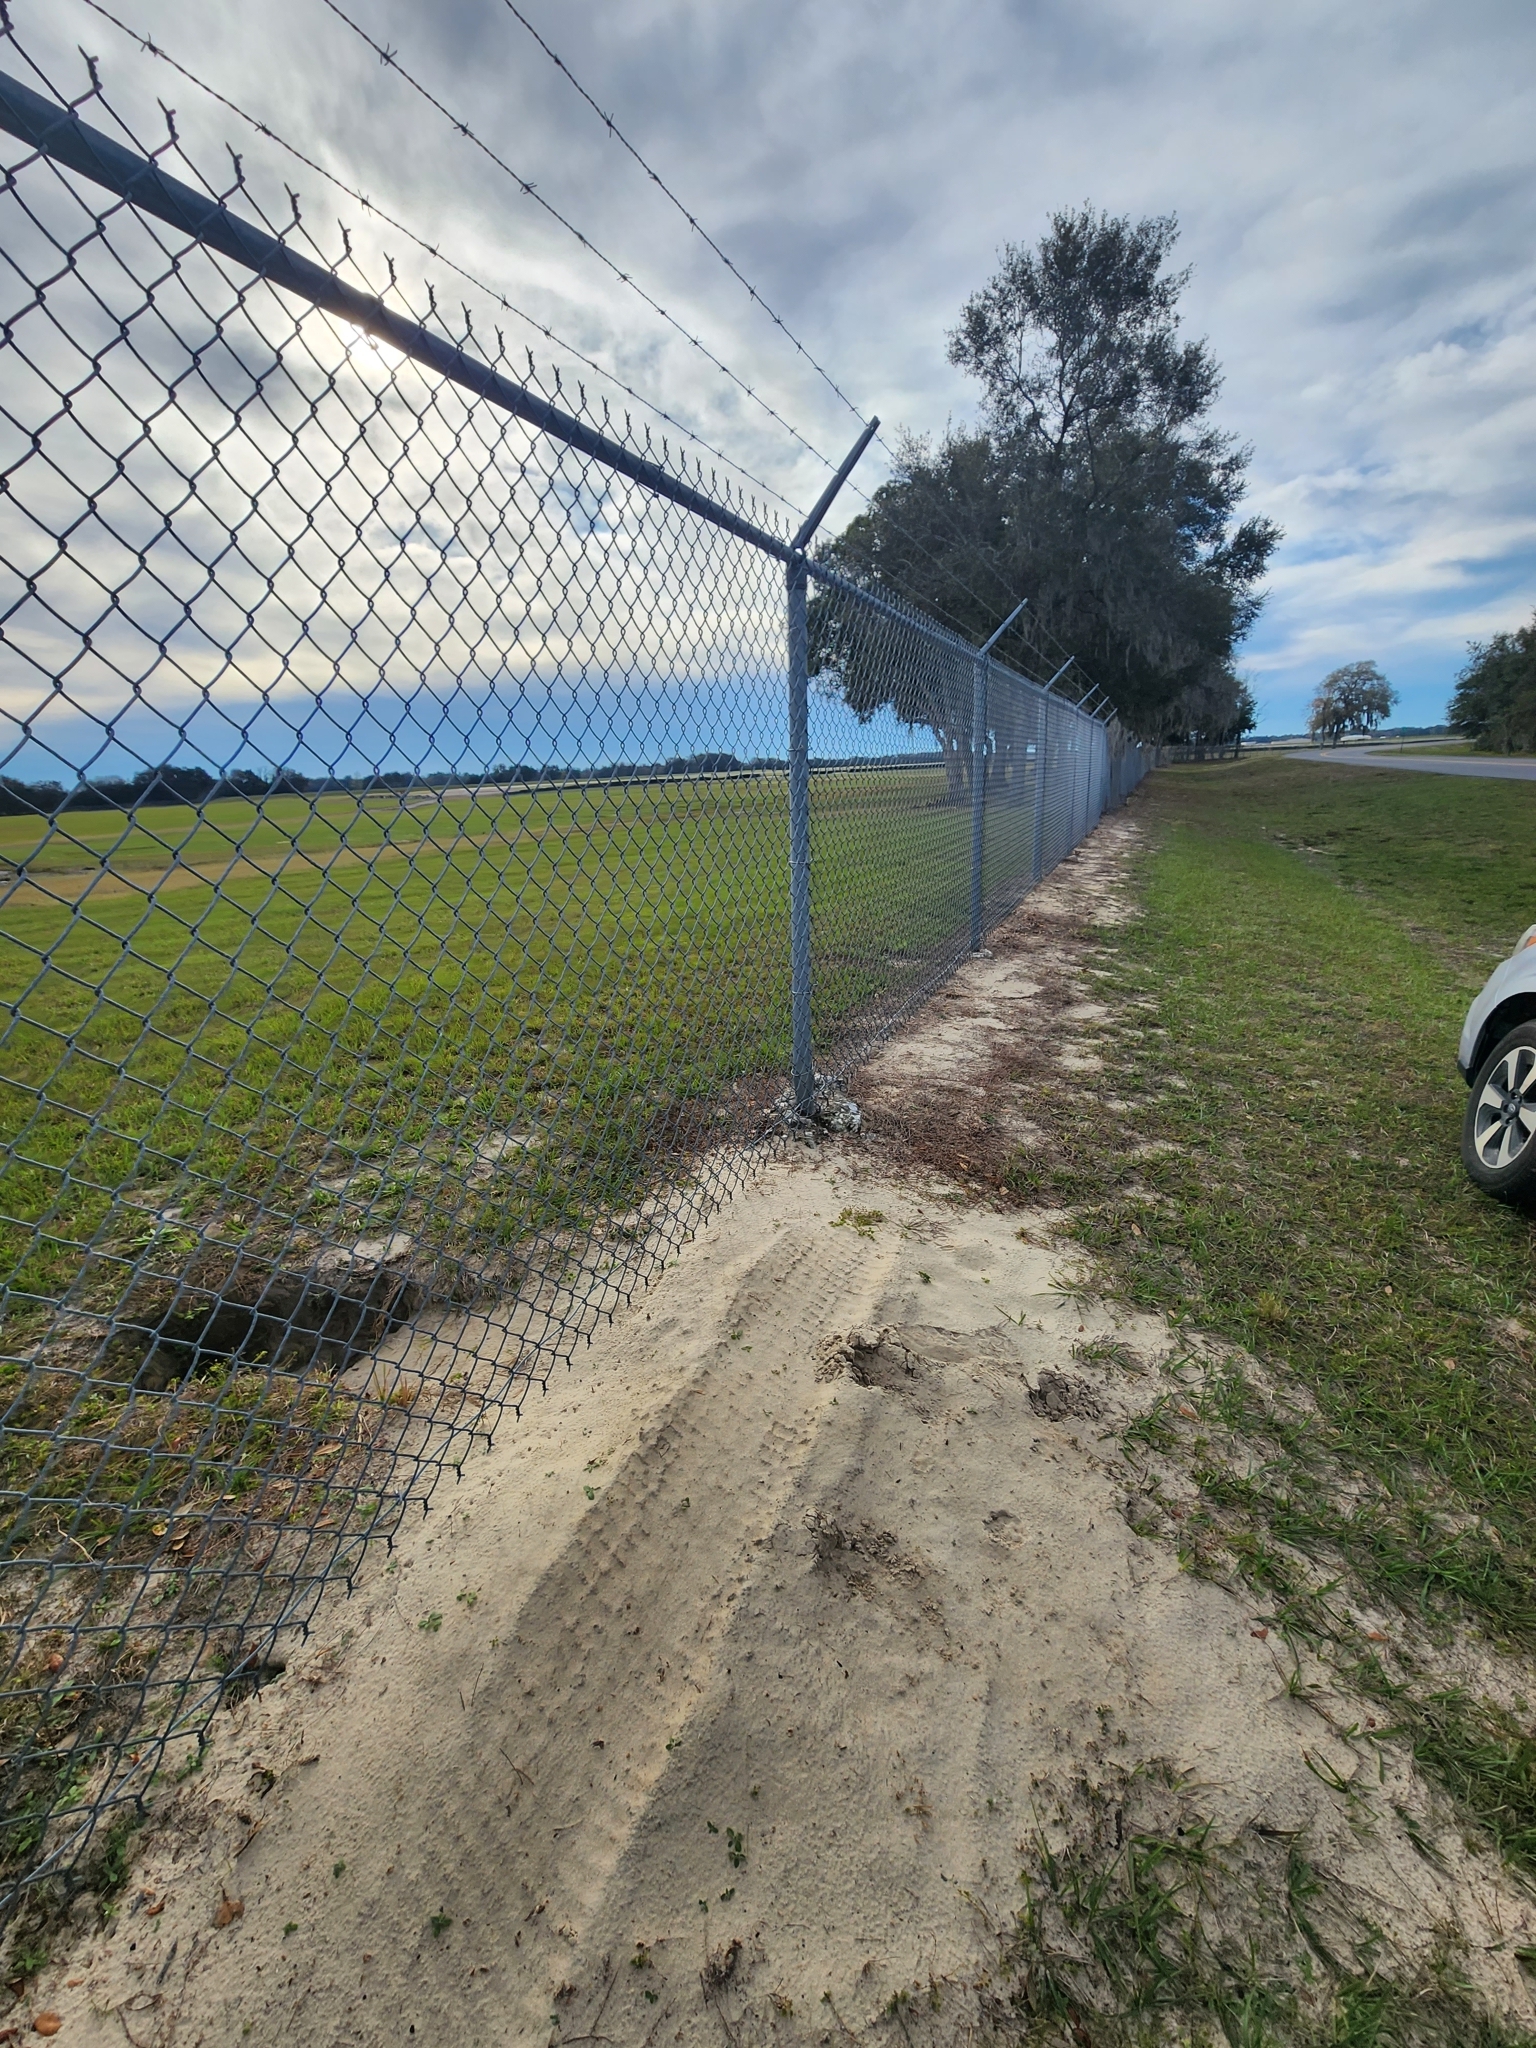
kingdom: Animalia
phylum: Chordata
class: Testudines
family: Testudinidae
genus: Gopherus
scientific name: Gopherus polyphemus
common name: Florida gopher tortoise
